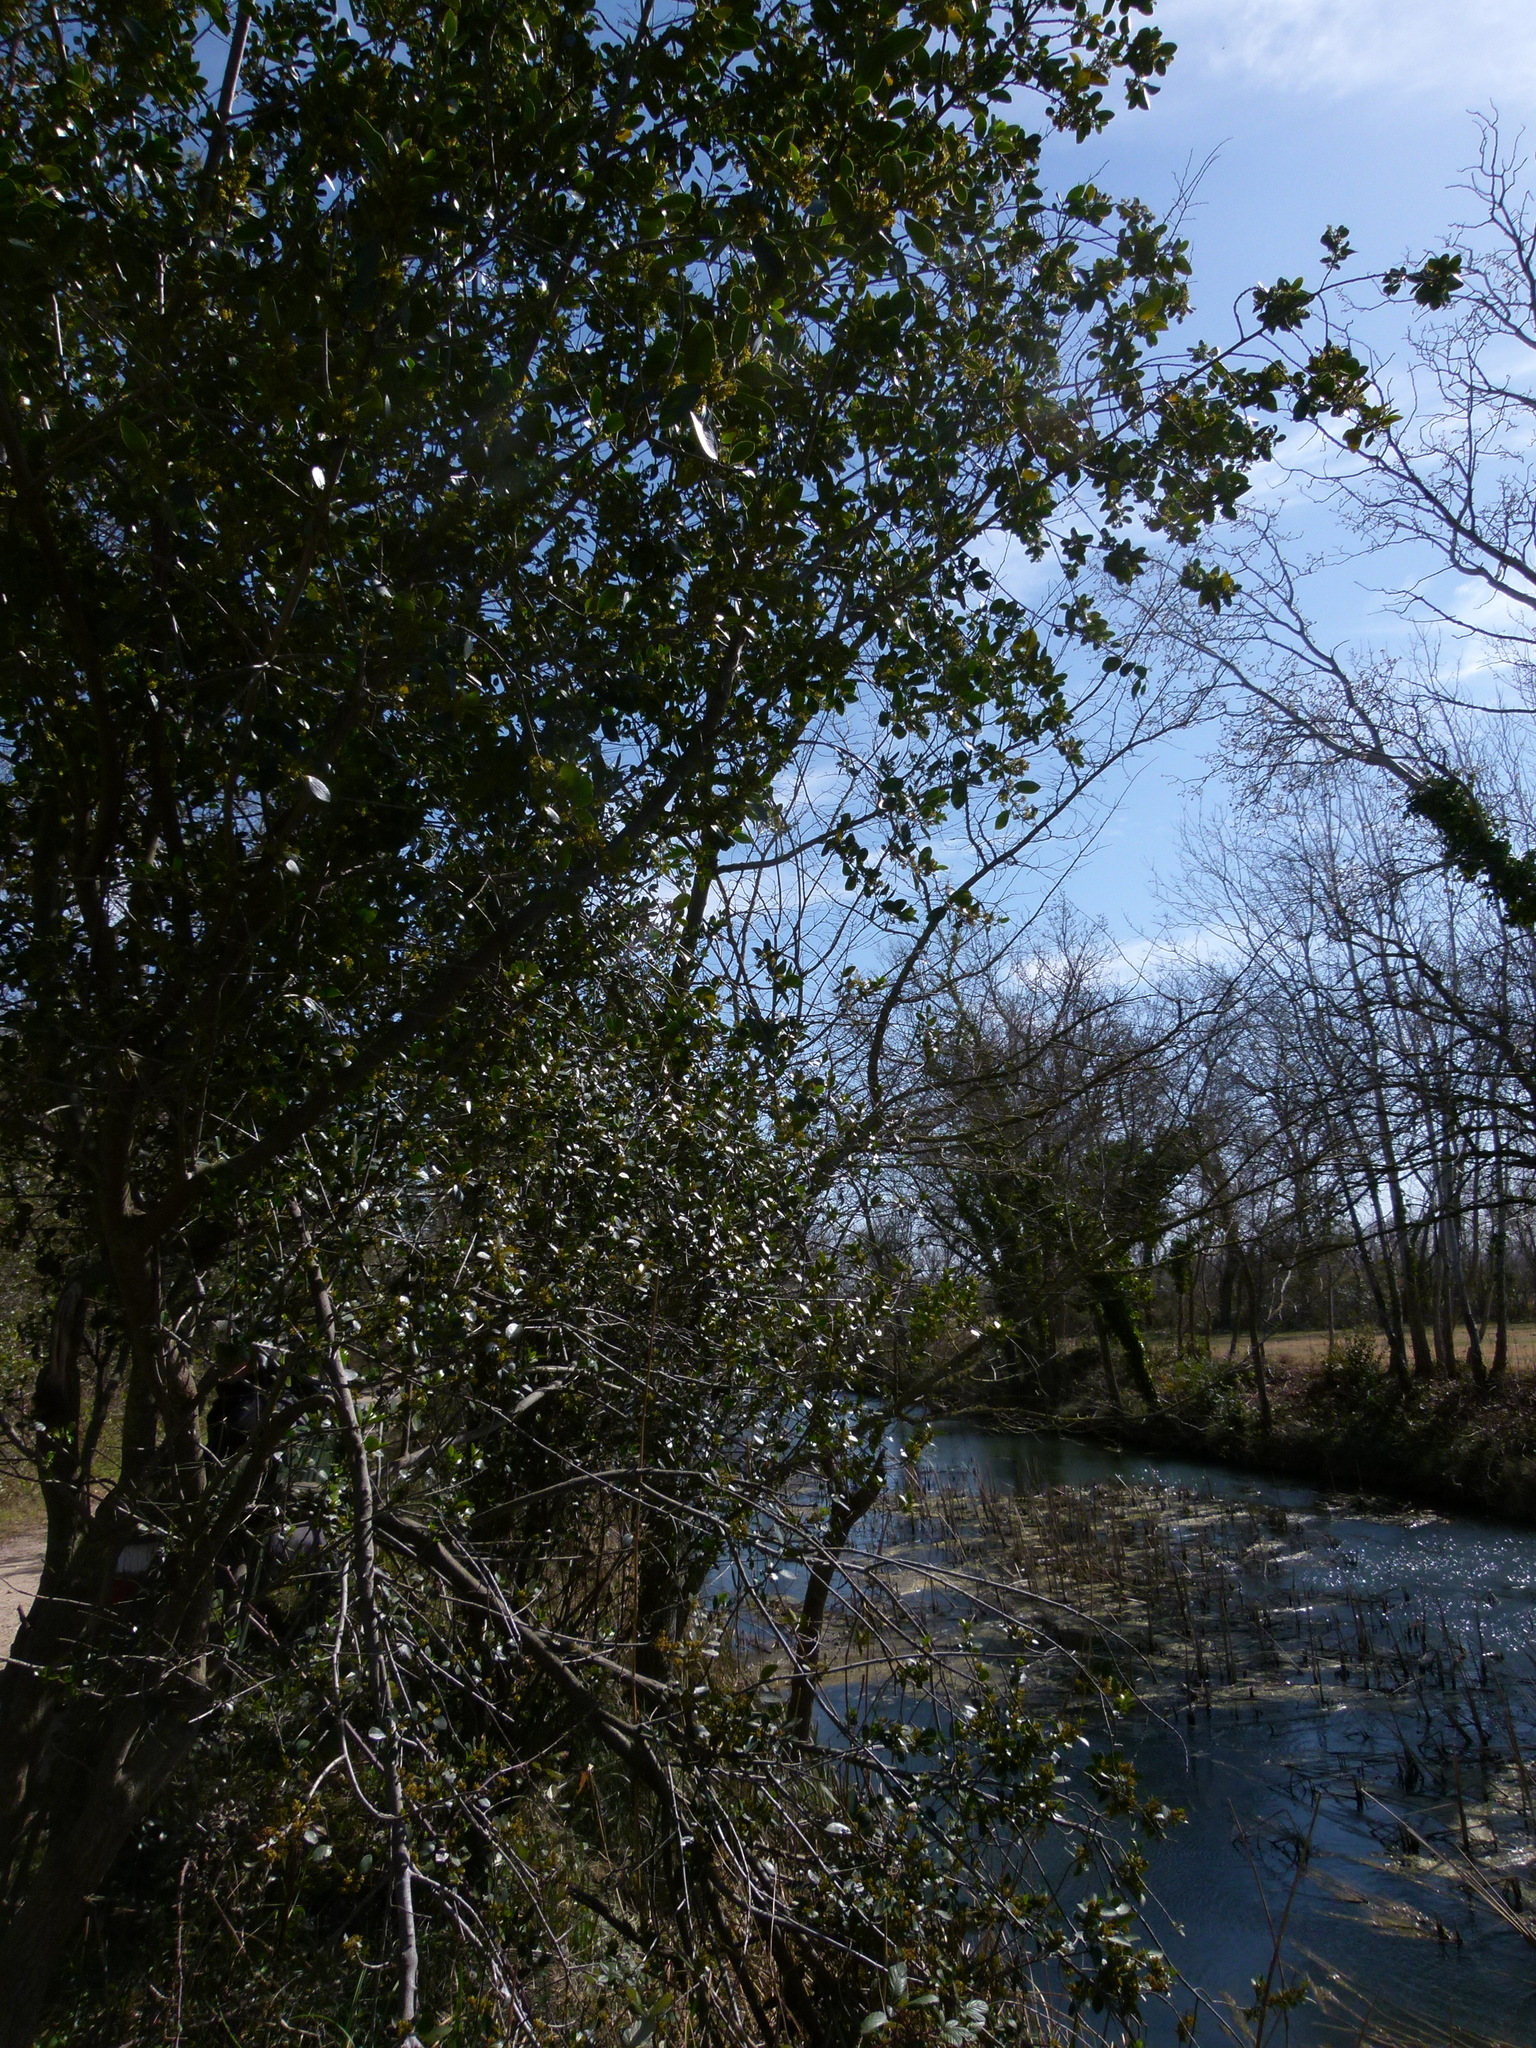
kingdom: Plantae
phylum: Tracheophyta
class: Magnoliopsida
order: Rosales
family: Rhamnaceae
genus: Rhamnus
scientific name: Rhamnus alaternus
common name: Mediterranean buckthorn
